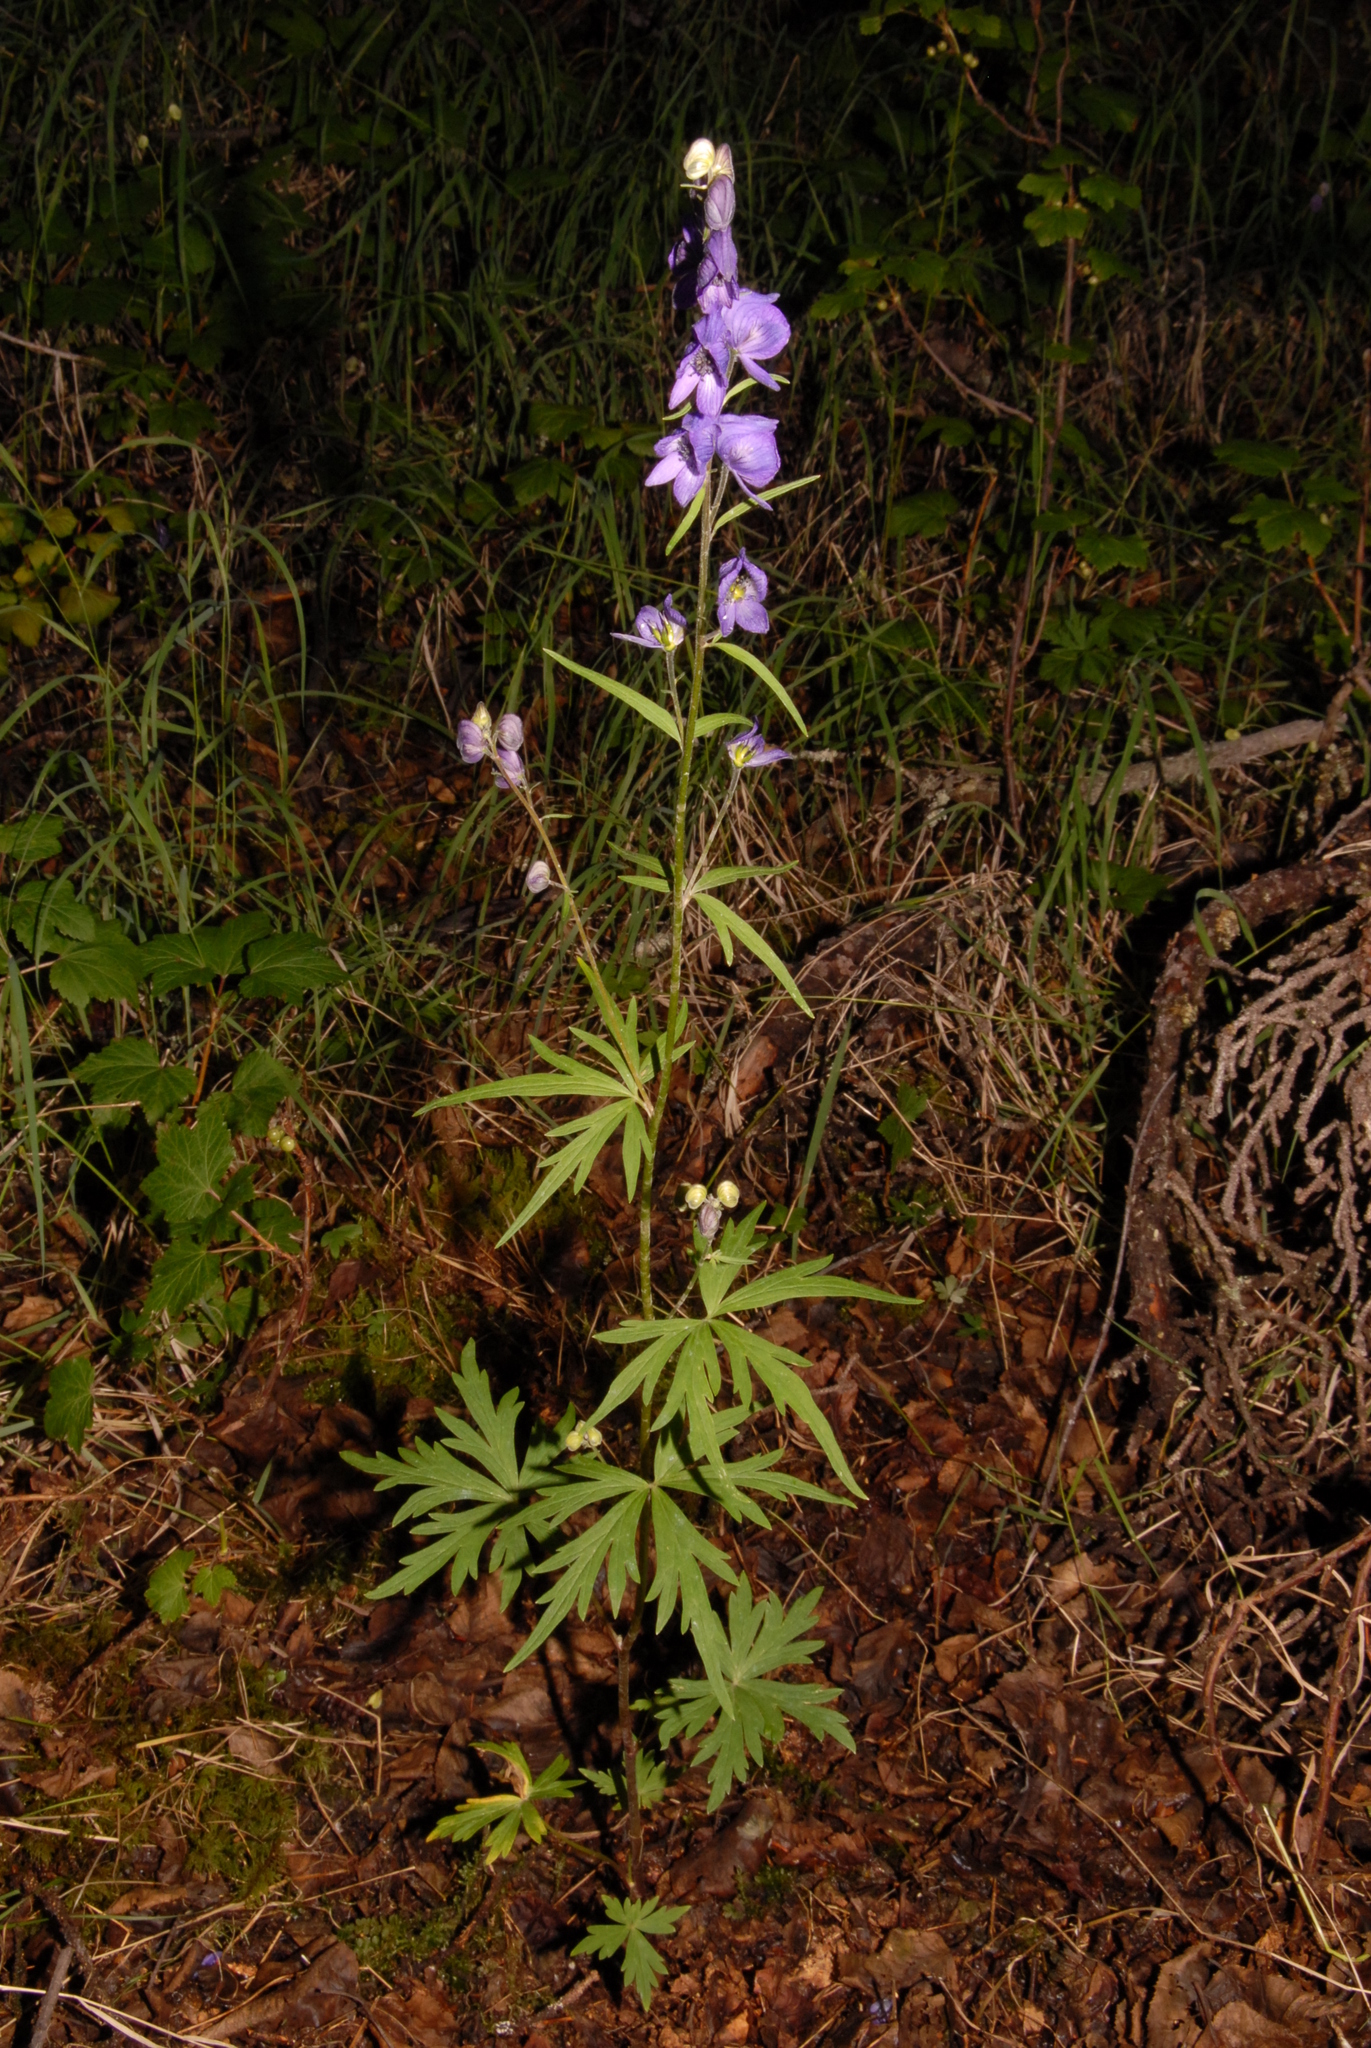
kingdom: Plantae
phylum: Tracheophyta
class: Magnoliopsida
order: Ranunculales
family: Ranunculaceae
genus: Aconitum
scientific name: Aconitum delphiniifolium
